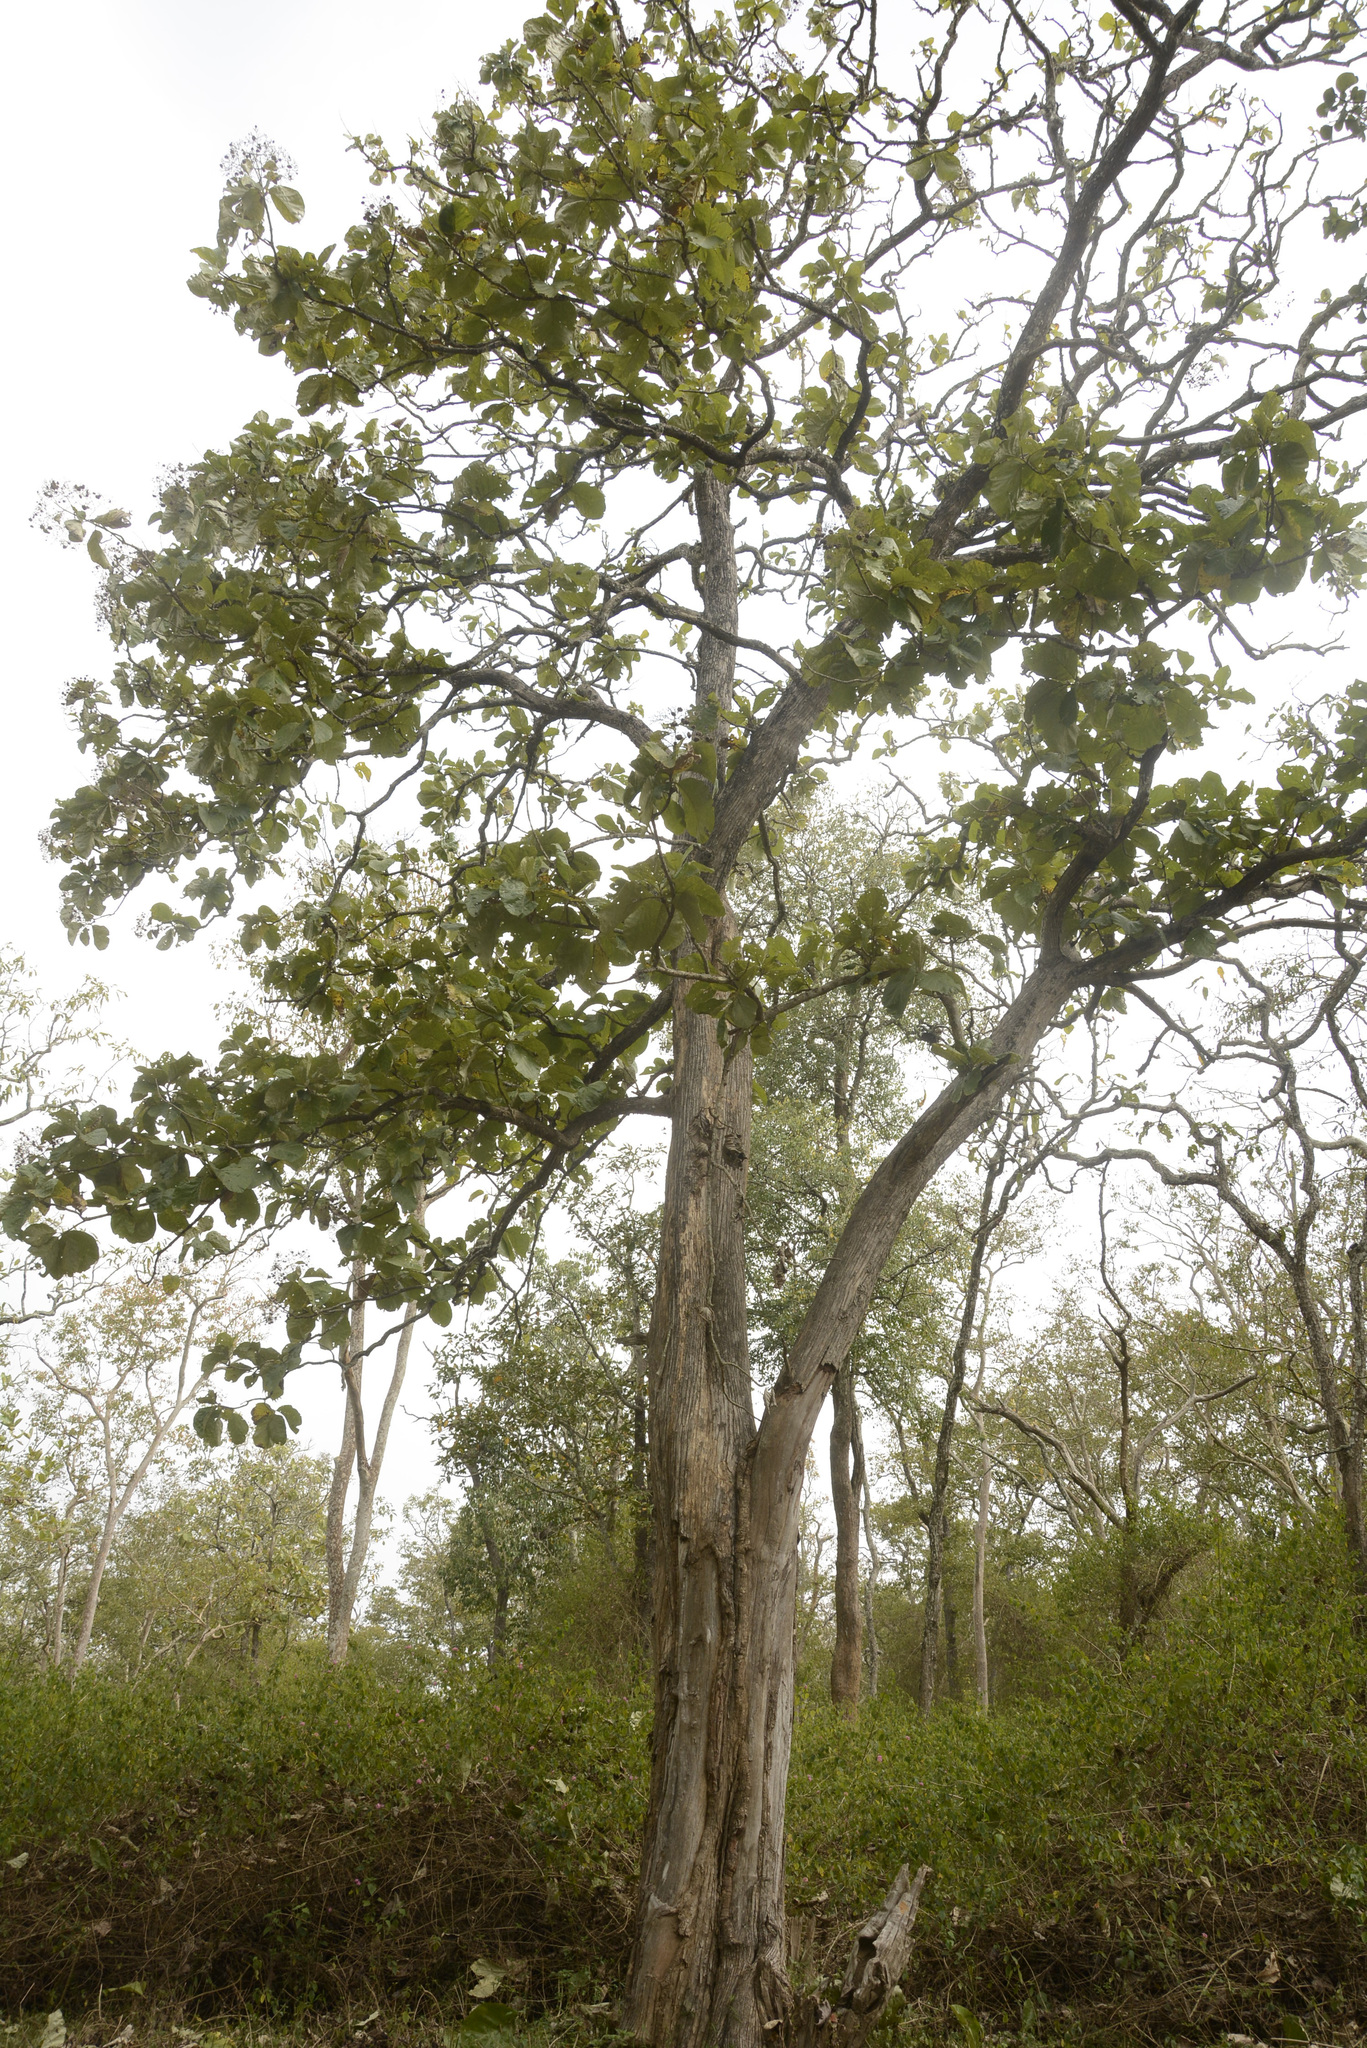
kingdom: Plantae
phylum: Tracheophyta
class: Magnoliopsida
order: Lamiales
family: Lamiaceae
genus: Tectona
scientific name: Tectona grandis
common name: Teak
